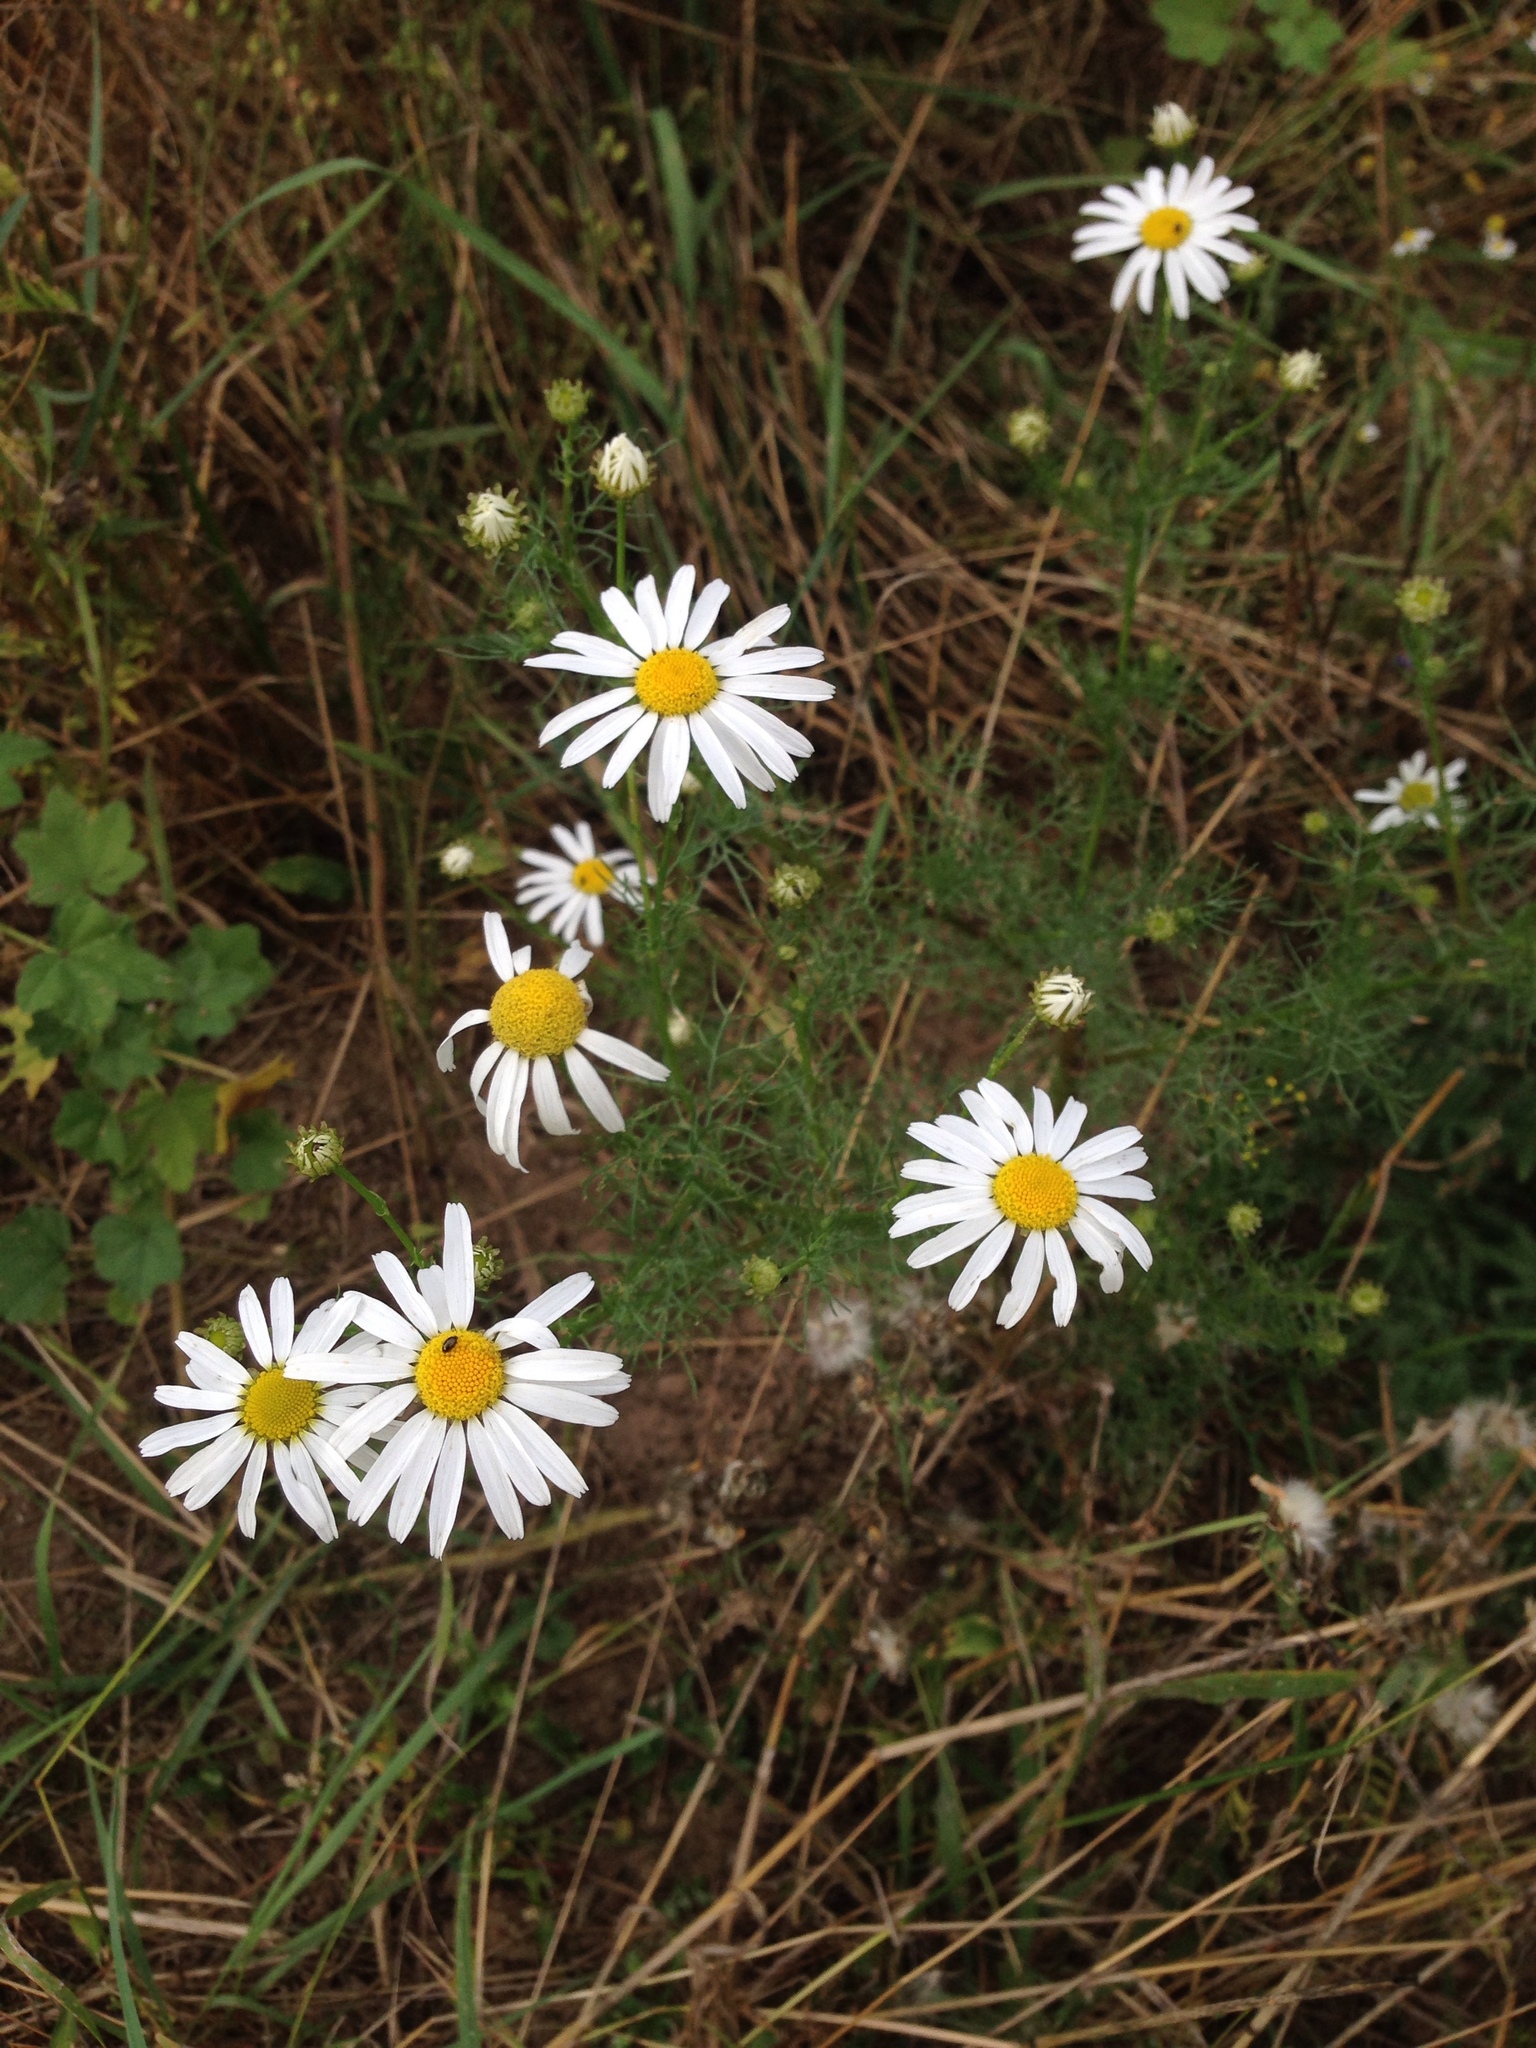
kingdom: Plantae
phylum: Tracheophyta
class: Magnoliopsida
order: Asterales
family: Asteraceae
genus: Tripleurospermum
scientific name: Tripleurospermum inodorum
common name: Scentless mayweed
